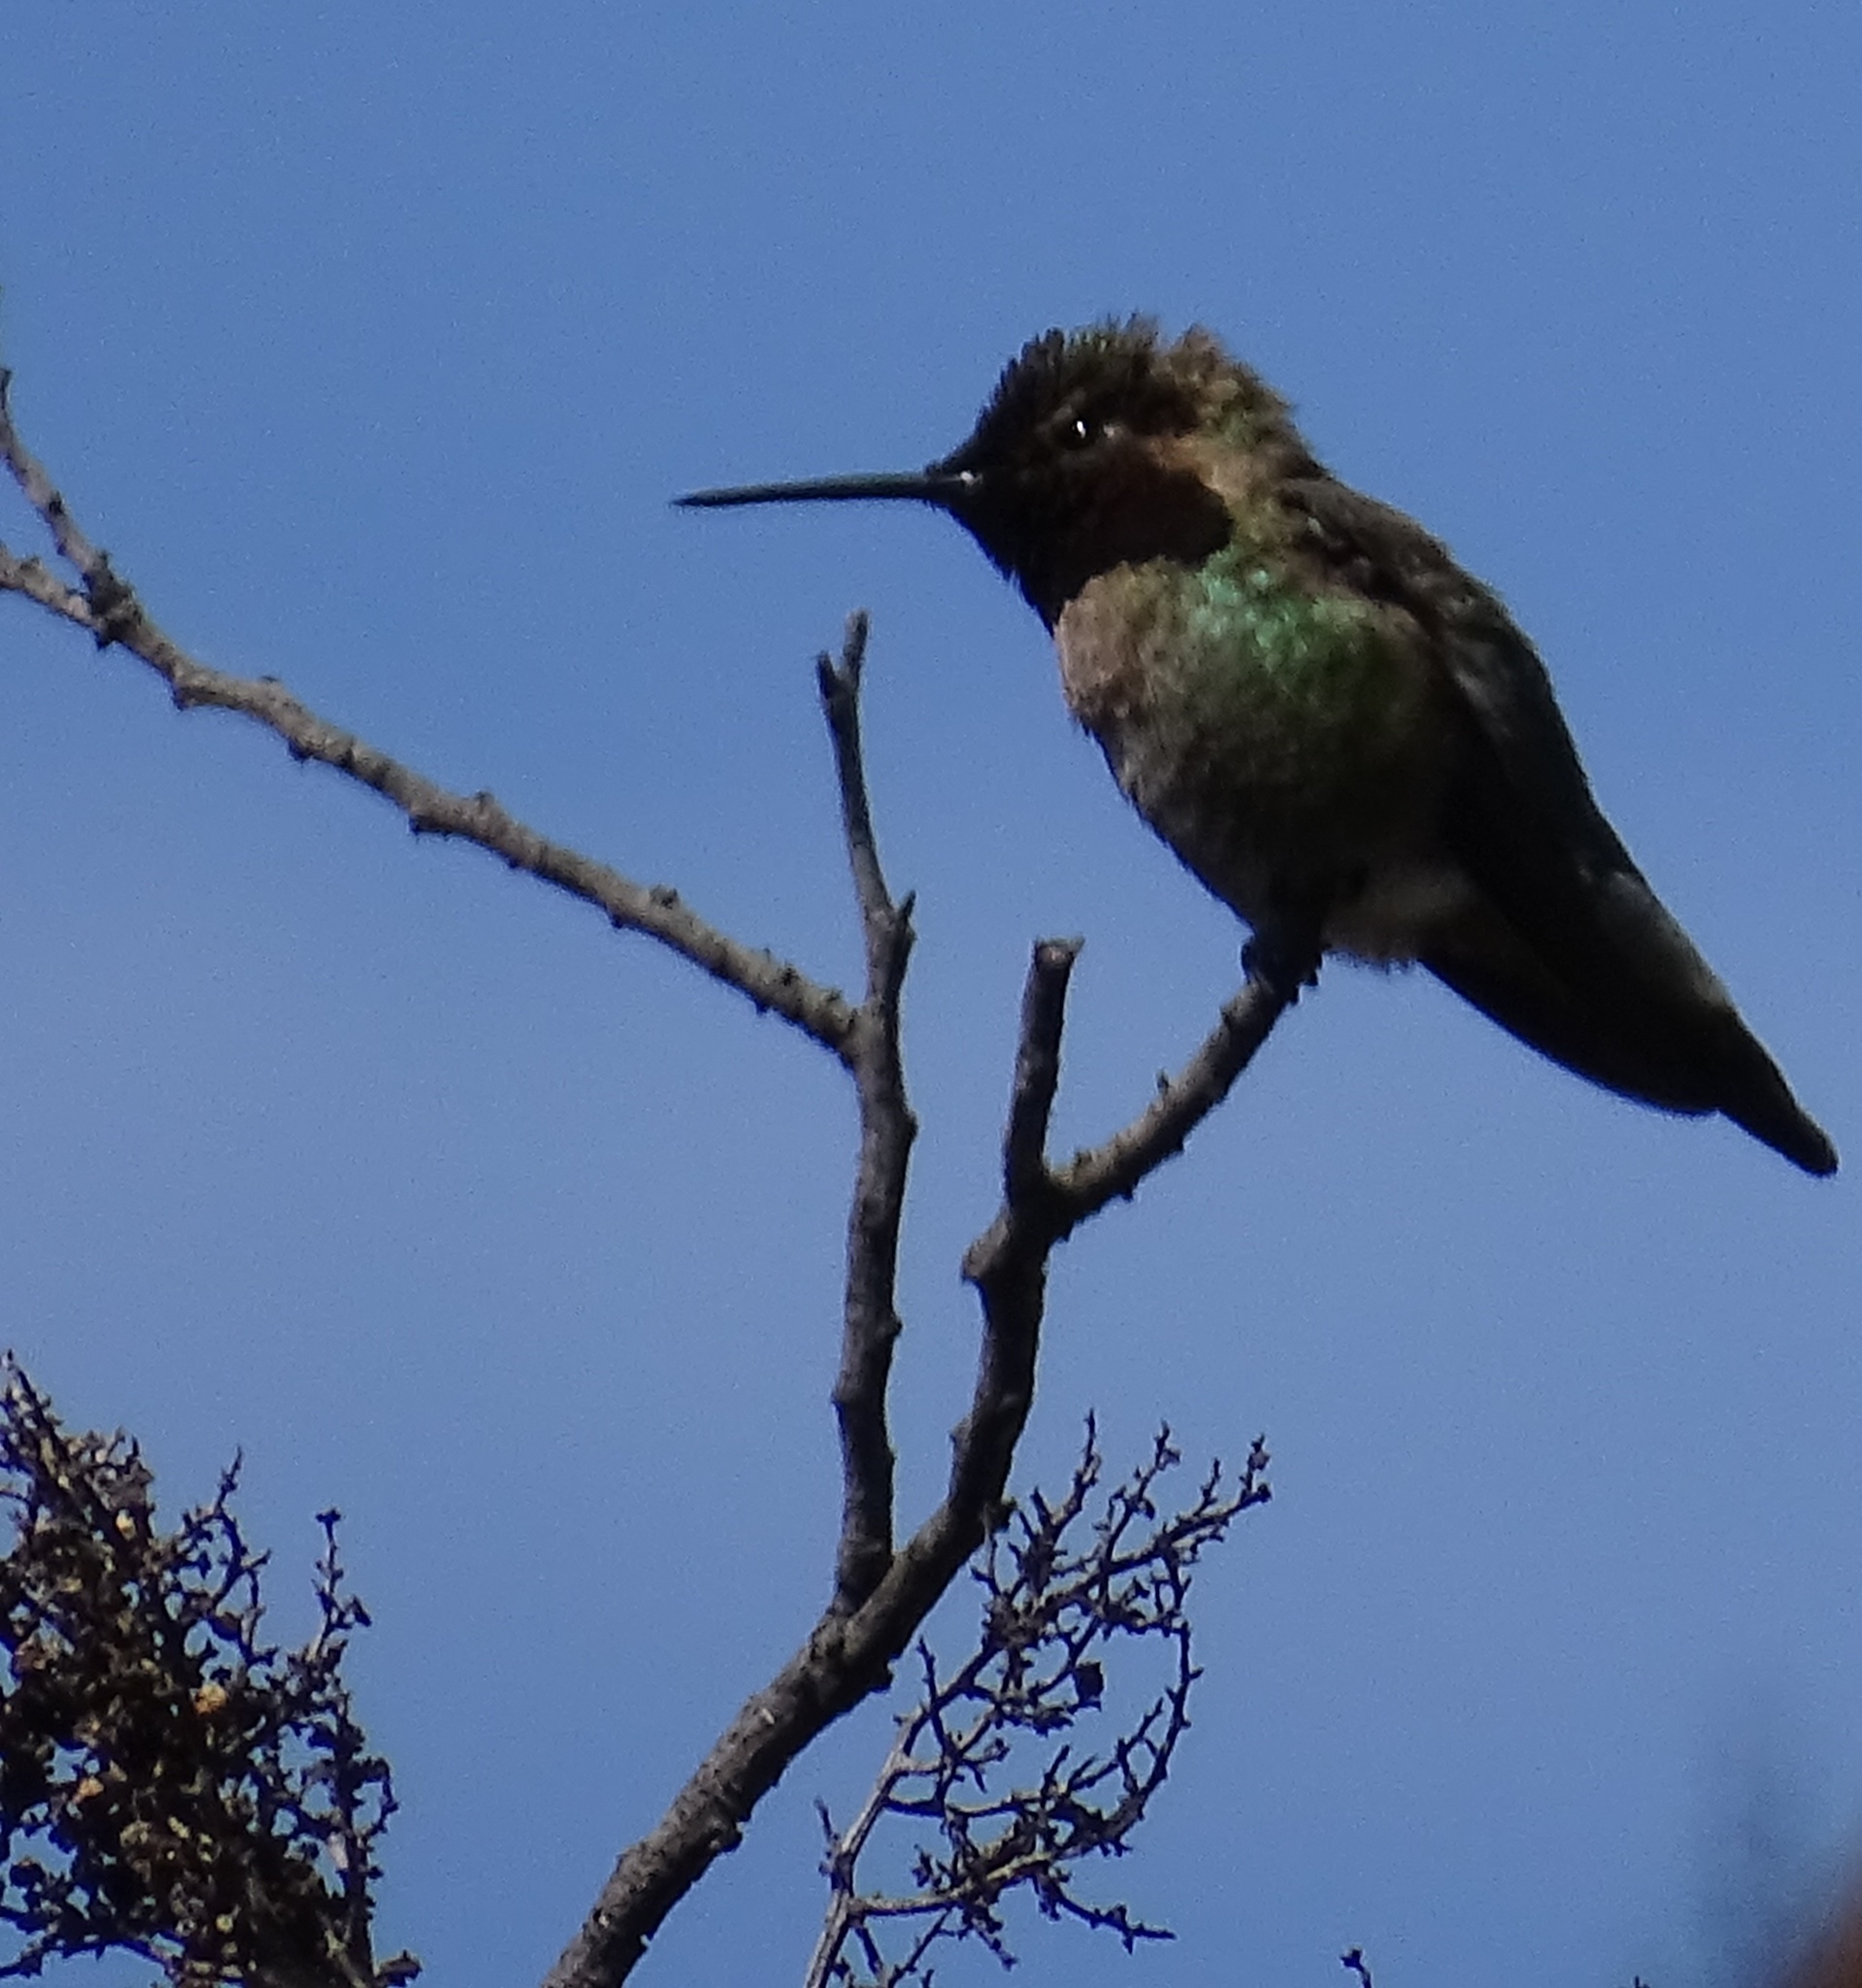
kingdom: Animalia
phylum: Chordata
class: Aves
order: Apodiformes
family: Trochilidae
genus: Calypte
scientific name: Calypte anna
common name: Anna's hummingbird
